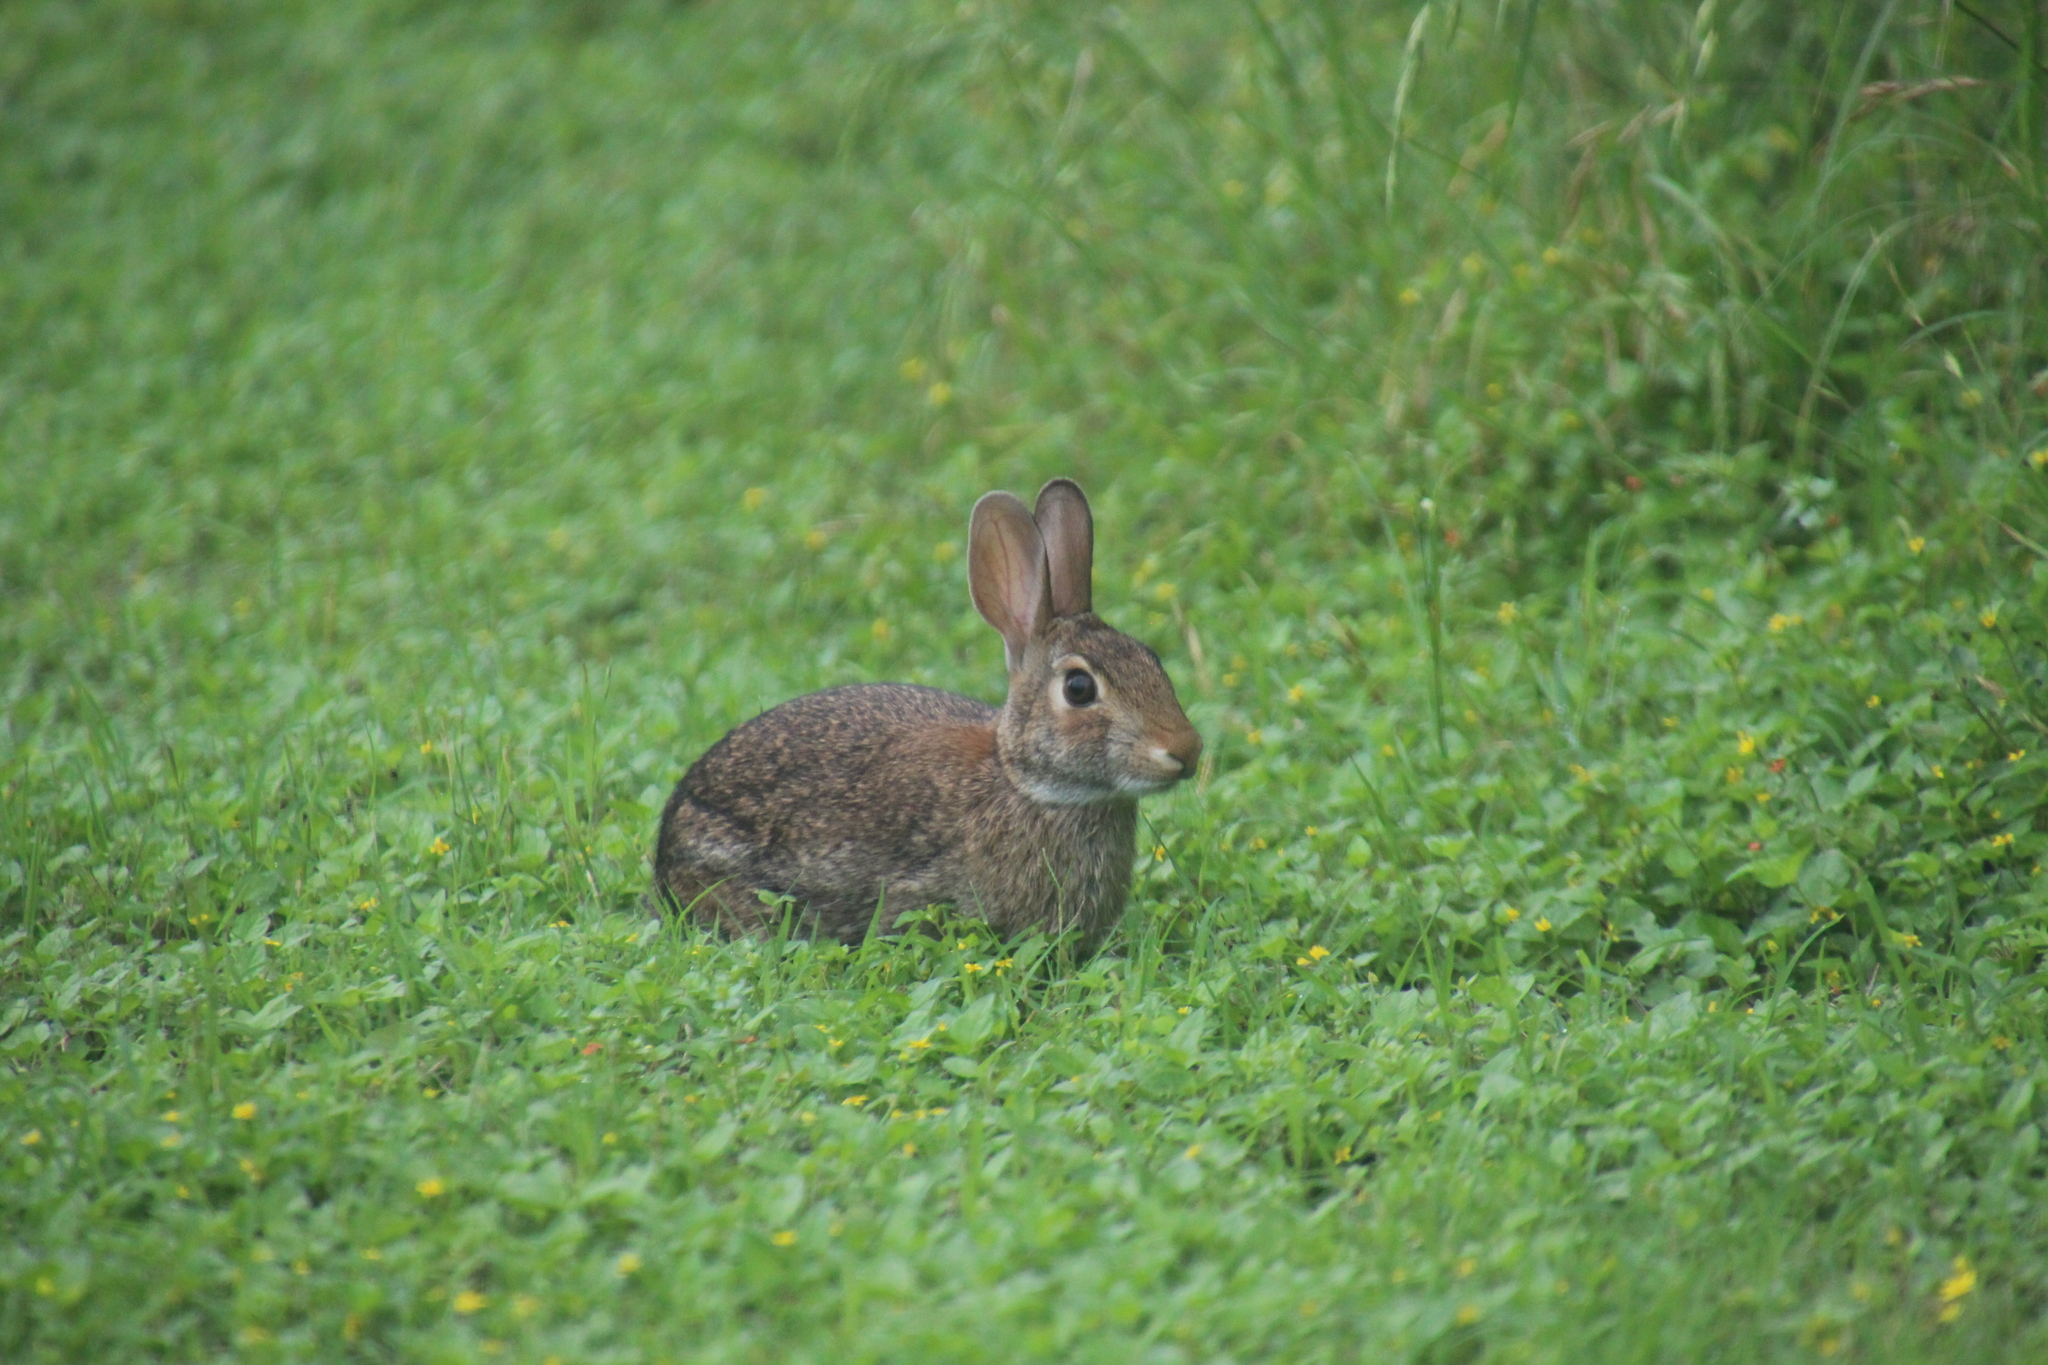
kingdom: Animalia
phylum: Chordata
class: Mammalia
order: Lagomorpha
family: Leporidae
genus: Sylvilagus
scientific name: Sylvilagus floridanus
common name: Eastern cottontail
